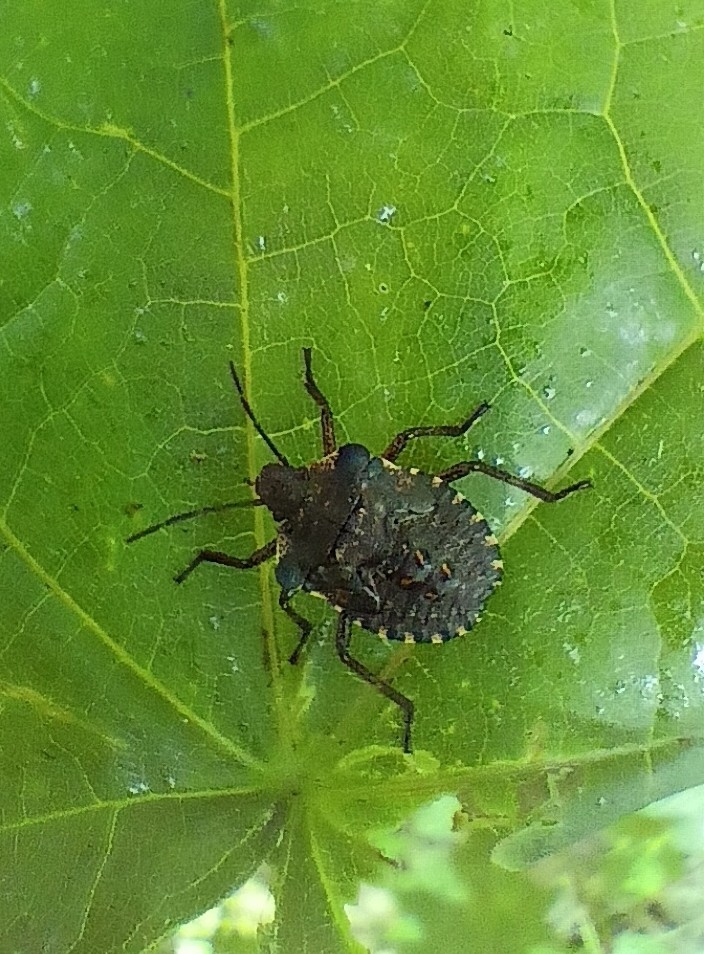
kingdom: Animalia
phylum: Arthropoda
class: Insecta
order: Hemiptera
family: Pentatomidae
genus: Pentatoma
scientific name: Pentatoma rufipes
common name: Forest bug
